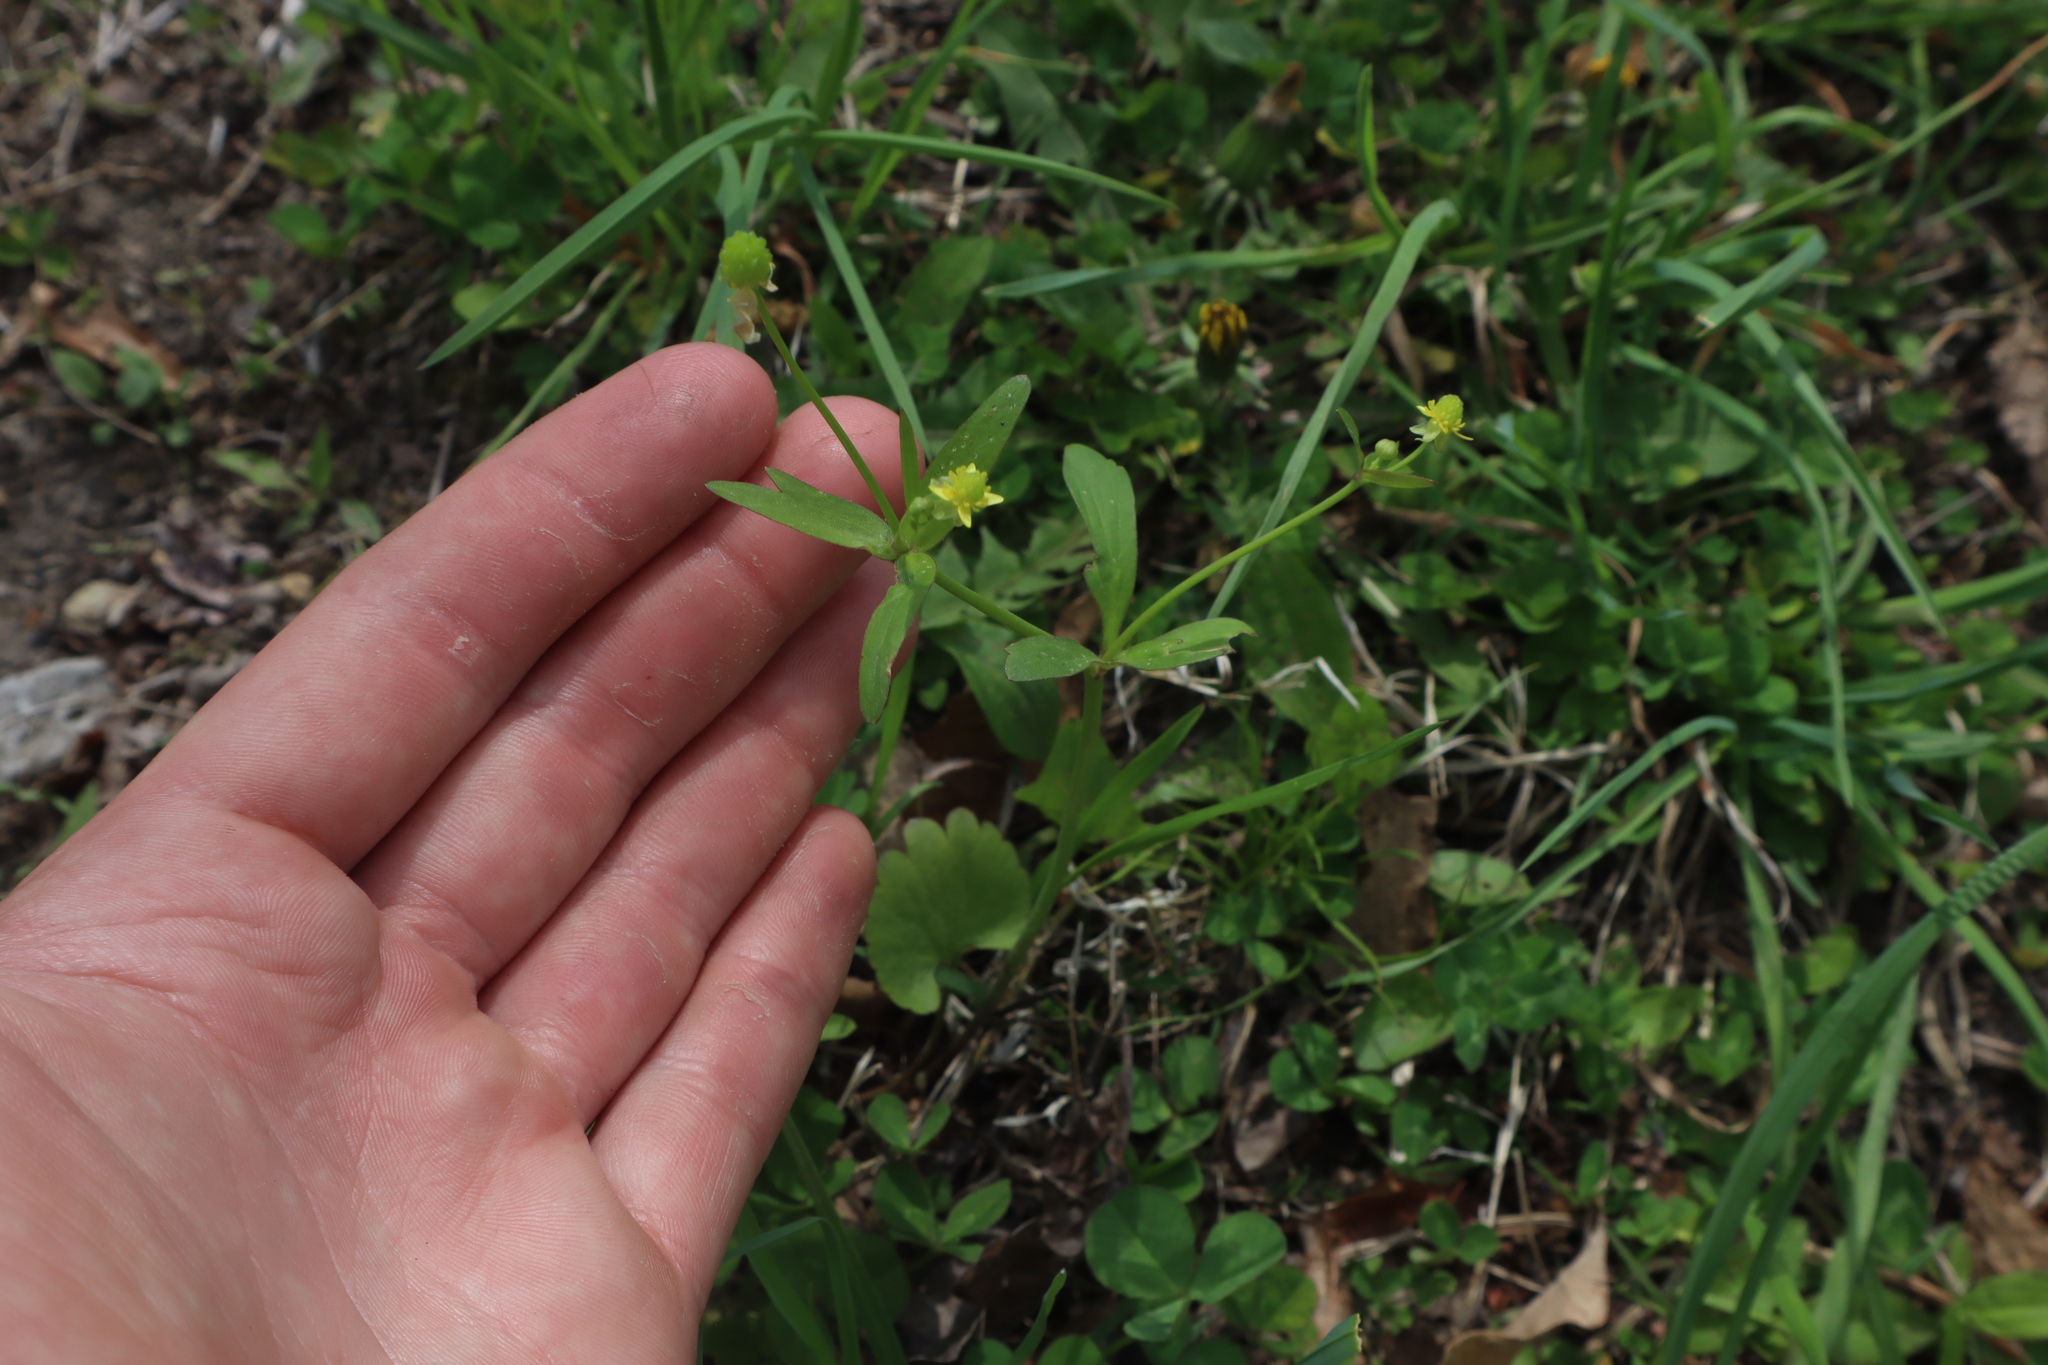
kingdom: Plantae
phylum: Tracheophyta
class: Magnoliopsida
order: Ranunculales
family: Ranunculaceae
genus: Ranunculus
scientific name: Ranunculus abortivus
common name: Early wood buttercup
